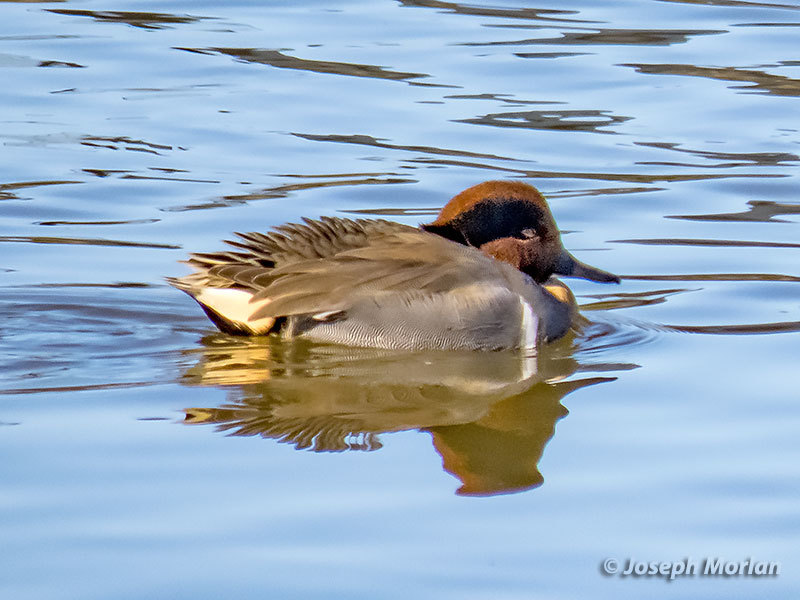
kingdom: Animalia
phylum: Chordata
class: Aves
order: Anseriformes
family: Anatidae
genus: Anas
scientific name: Anas crecca
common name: Eurasian teal
